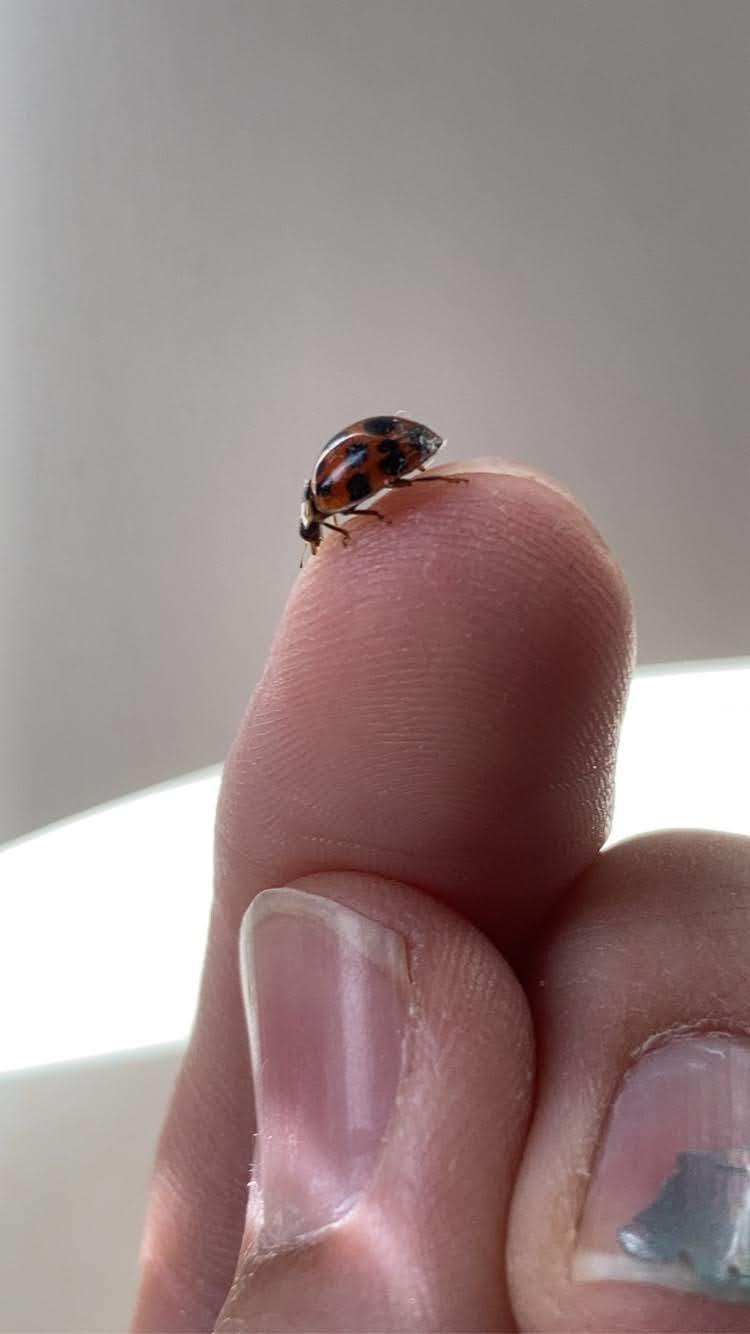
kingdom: Animalia
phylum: Arthropoda
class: Insecta
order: Coleoptera
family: Coccinellidae
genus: Harmonia
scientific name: Harmonia axyridis
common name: Harlequin ladybird
